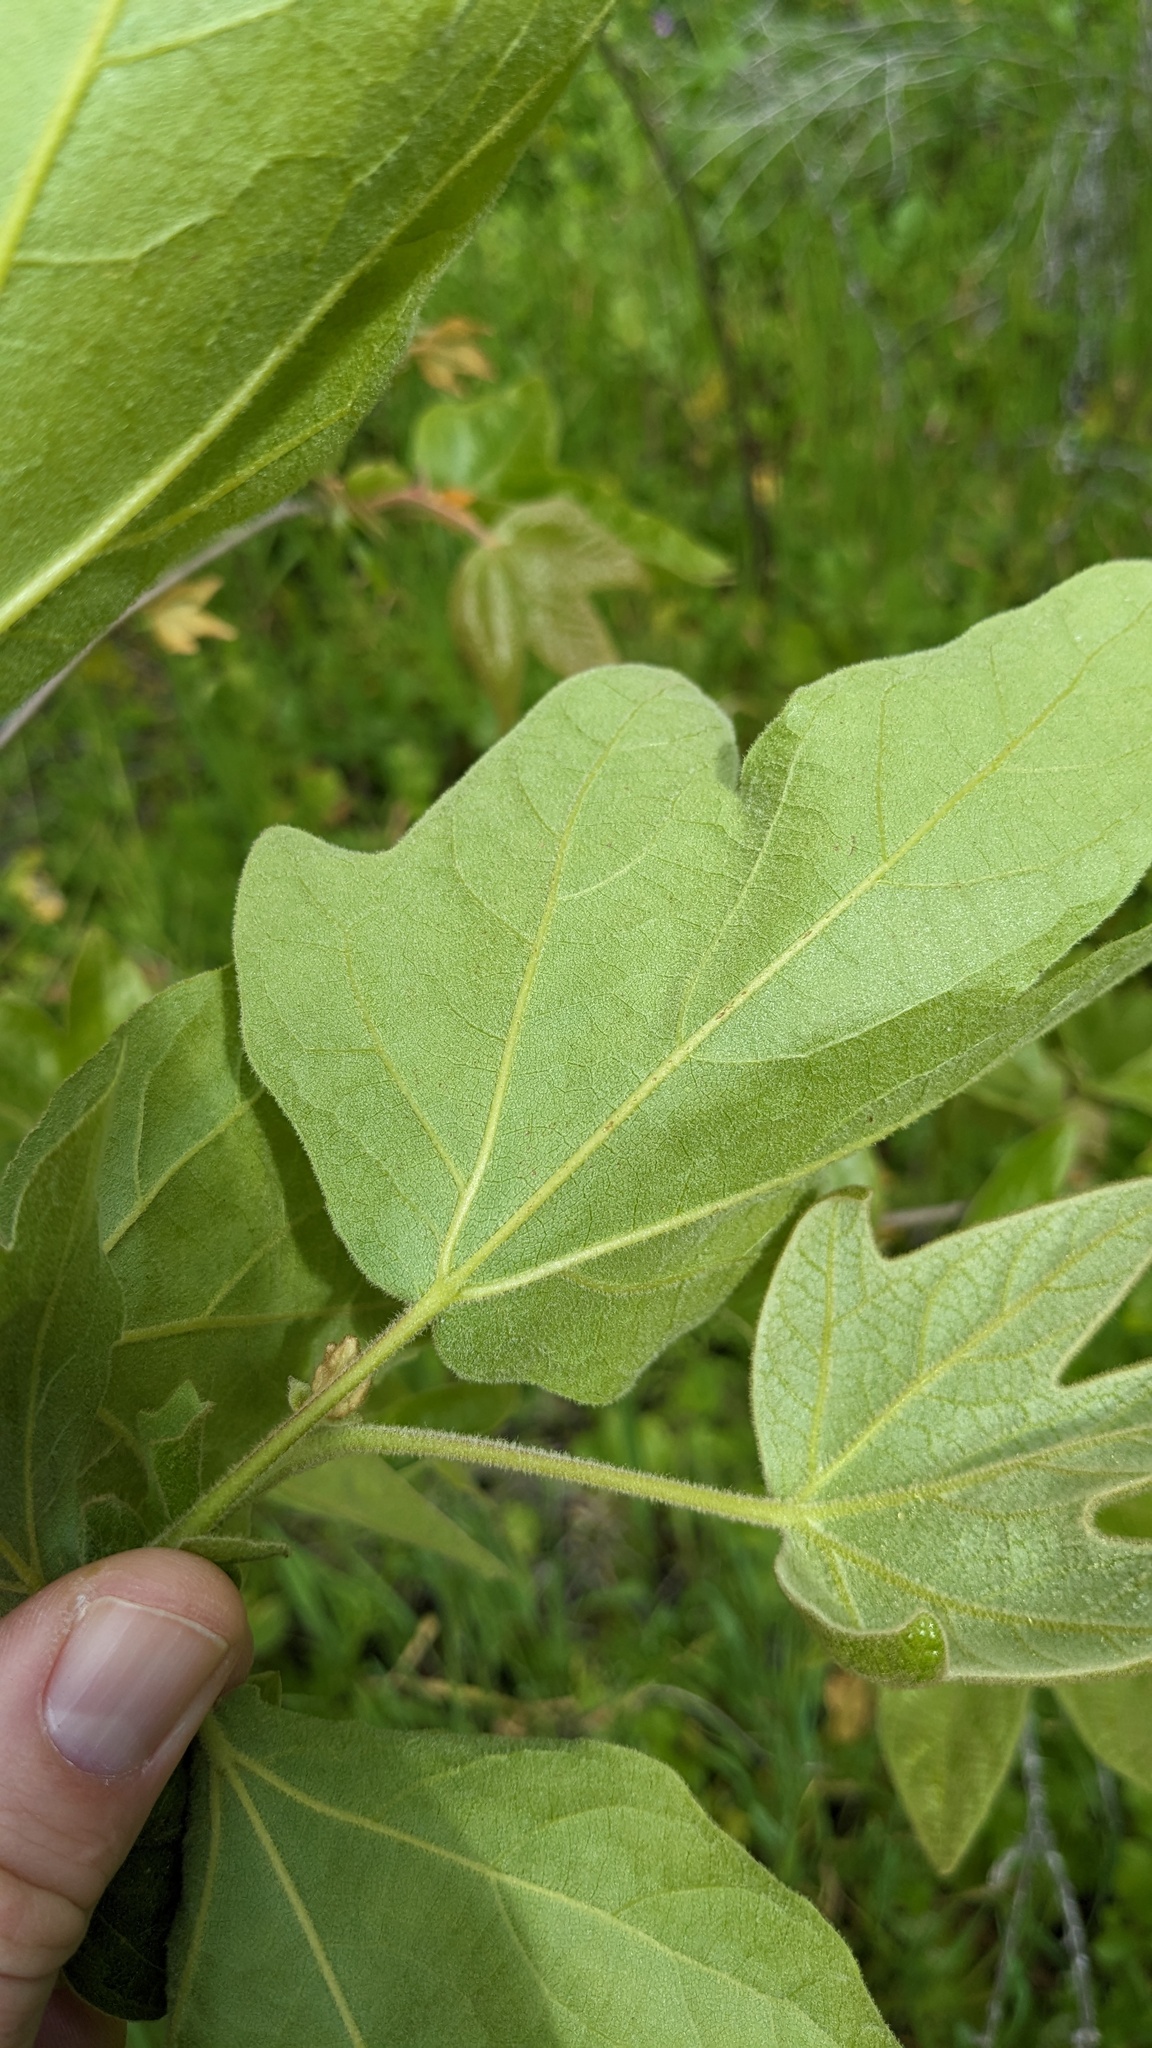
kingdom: Plantae
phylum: Tracheophyta
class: Magnoliopsida
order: Proteales
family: Platanaceae
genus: Platanus
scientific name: Platanus racemosa
